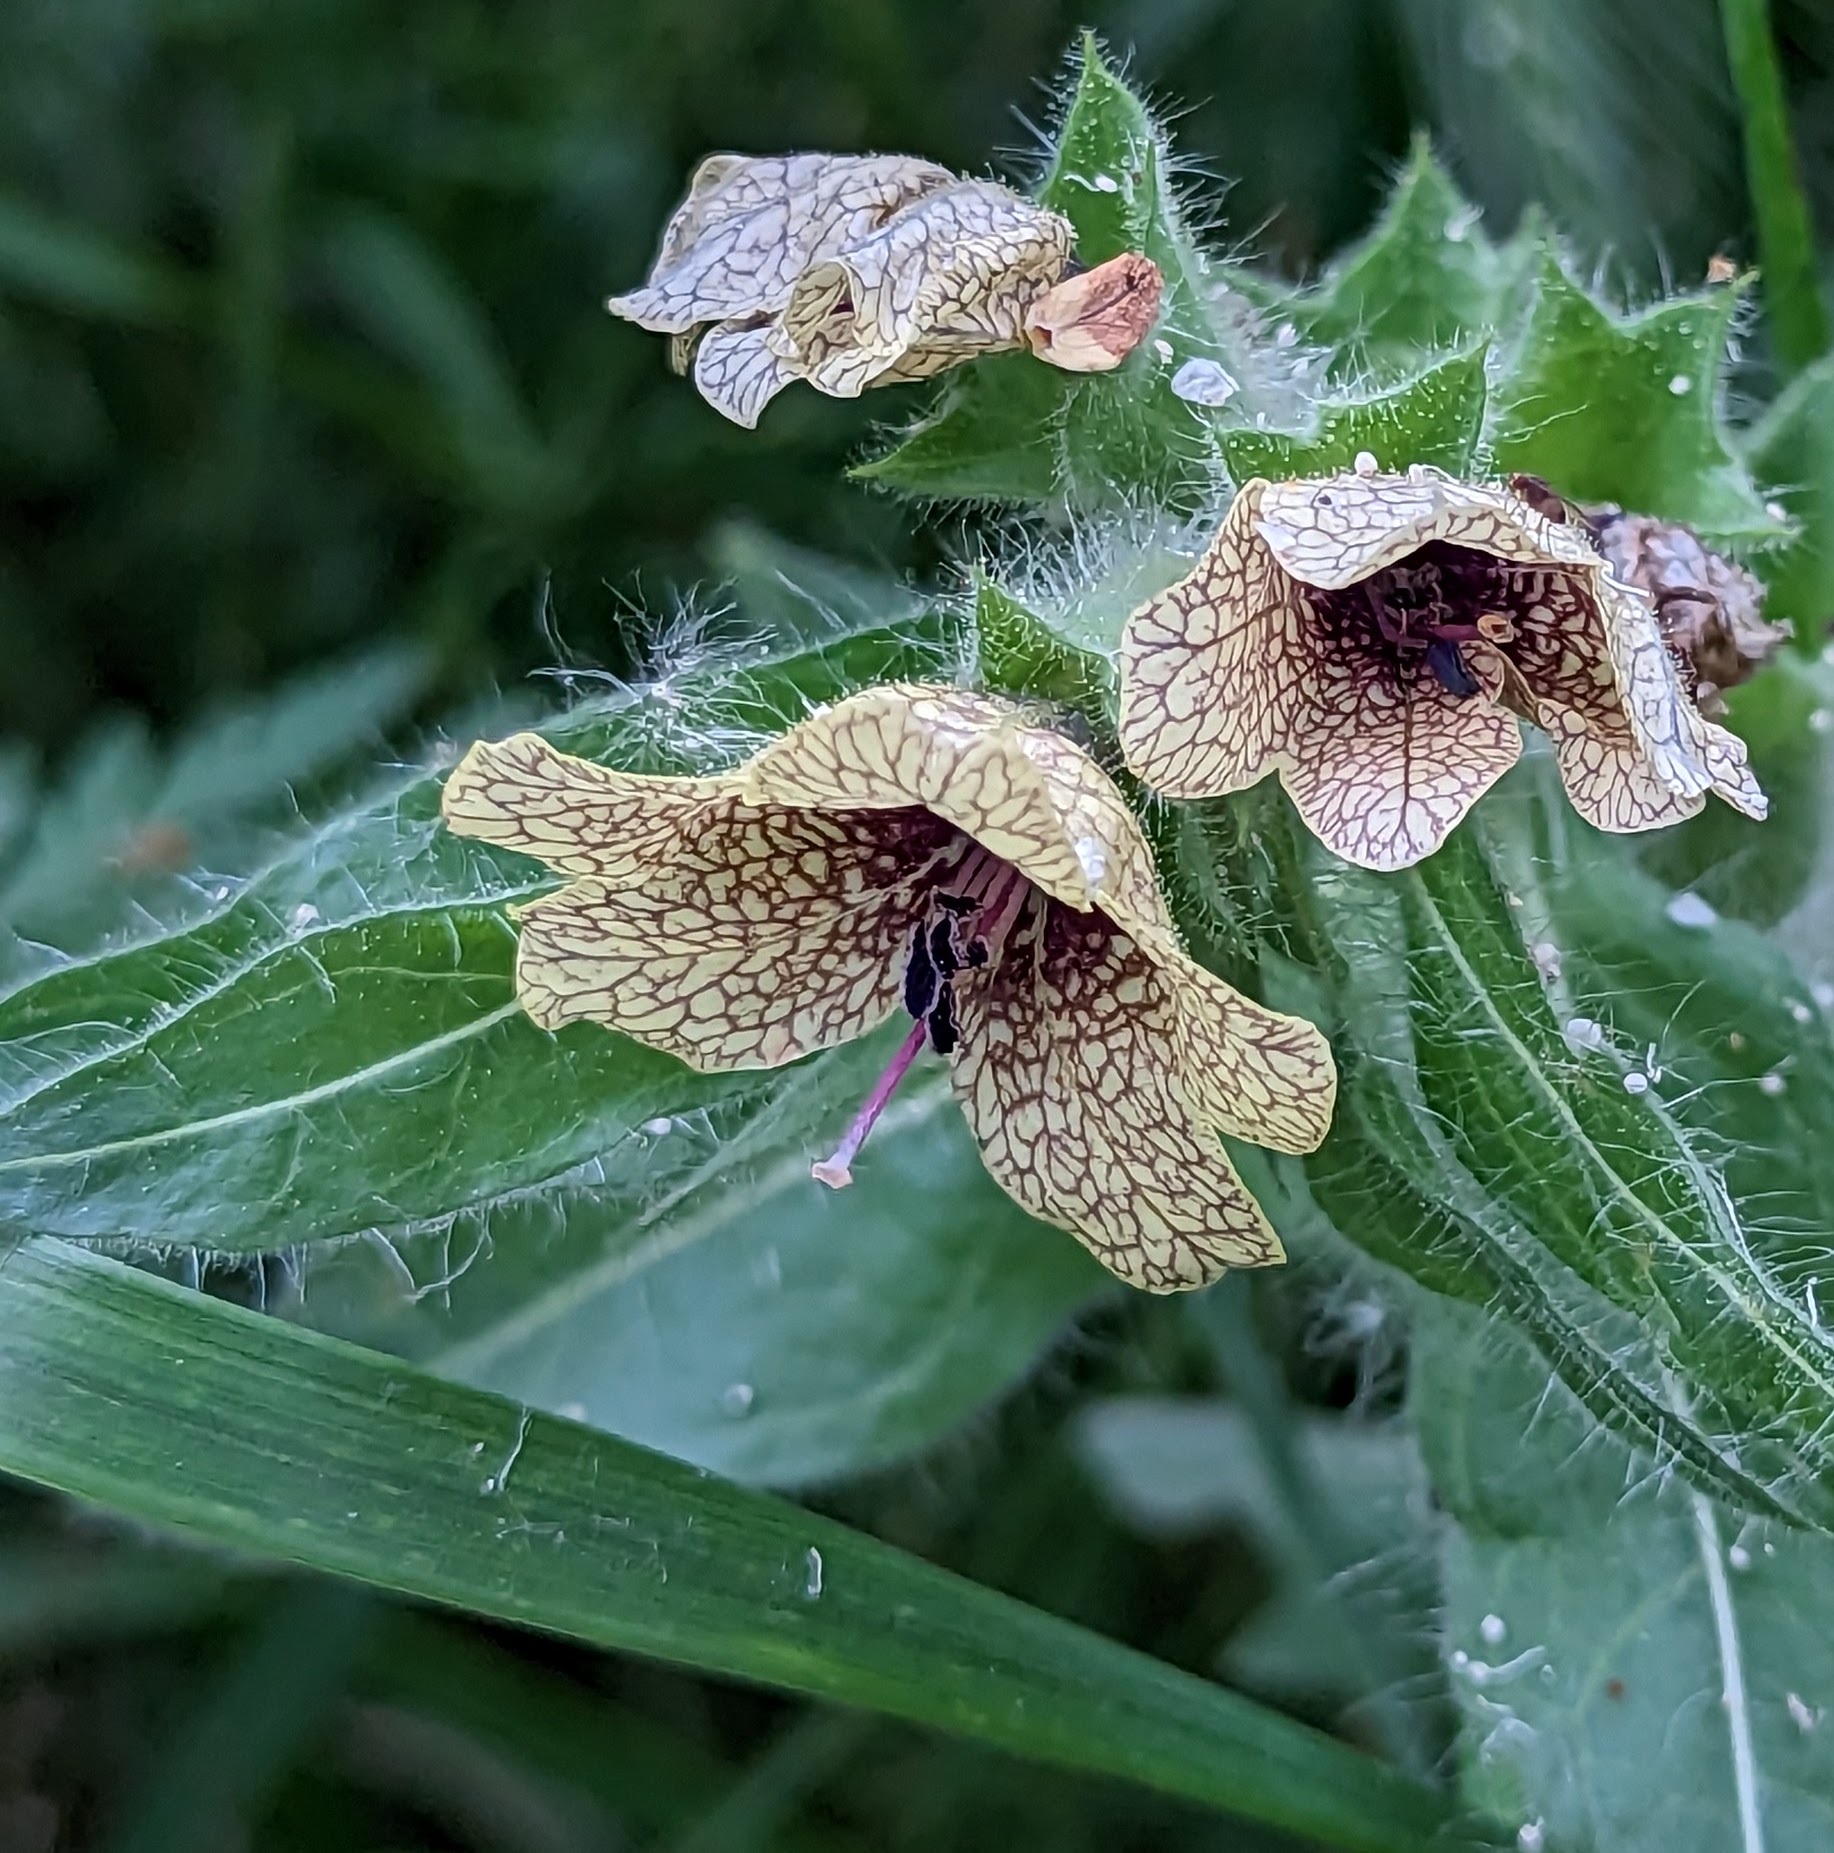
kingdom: Plantae
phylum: Tracheophyta
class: Magnoliopsida
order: Solanales
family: Solanaceae
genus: Hyoscyamus
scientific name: Hyoscyamus niger
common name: Henbane
